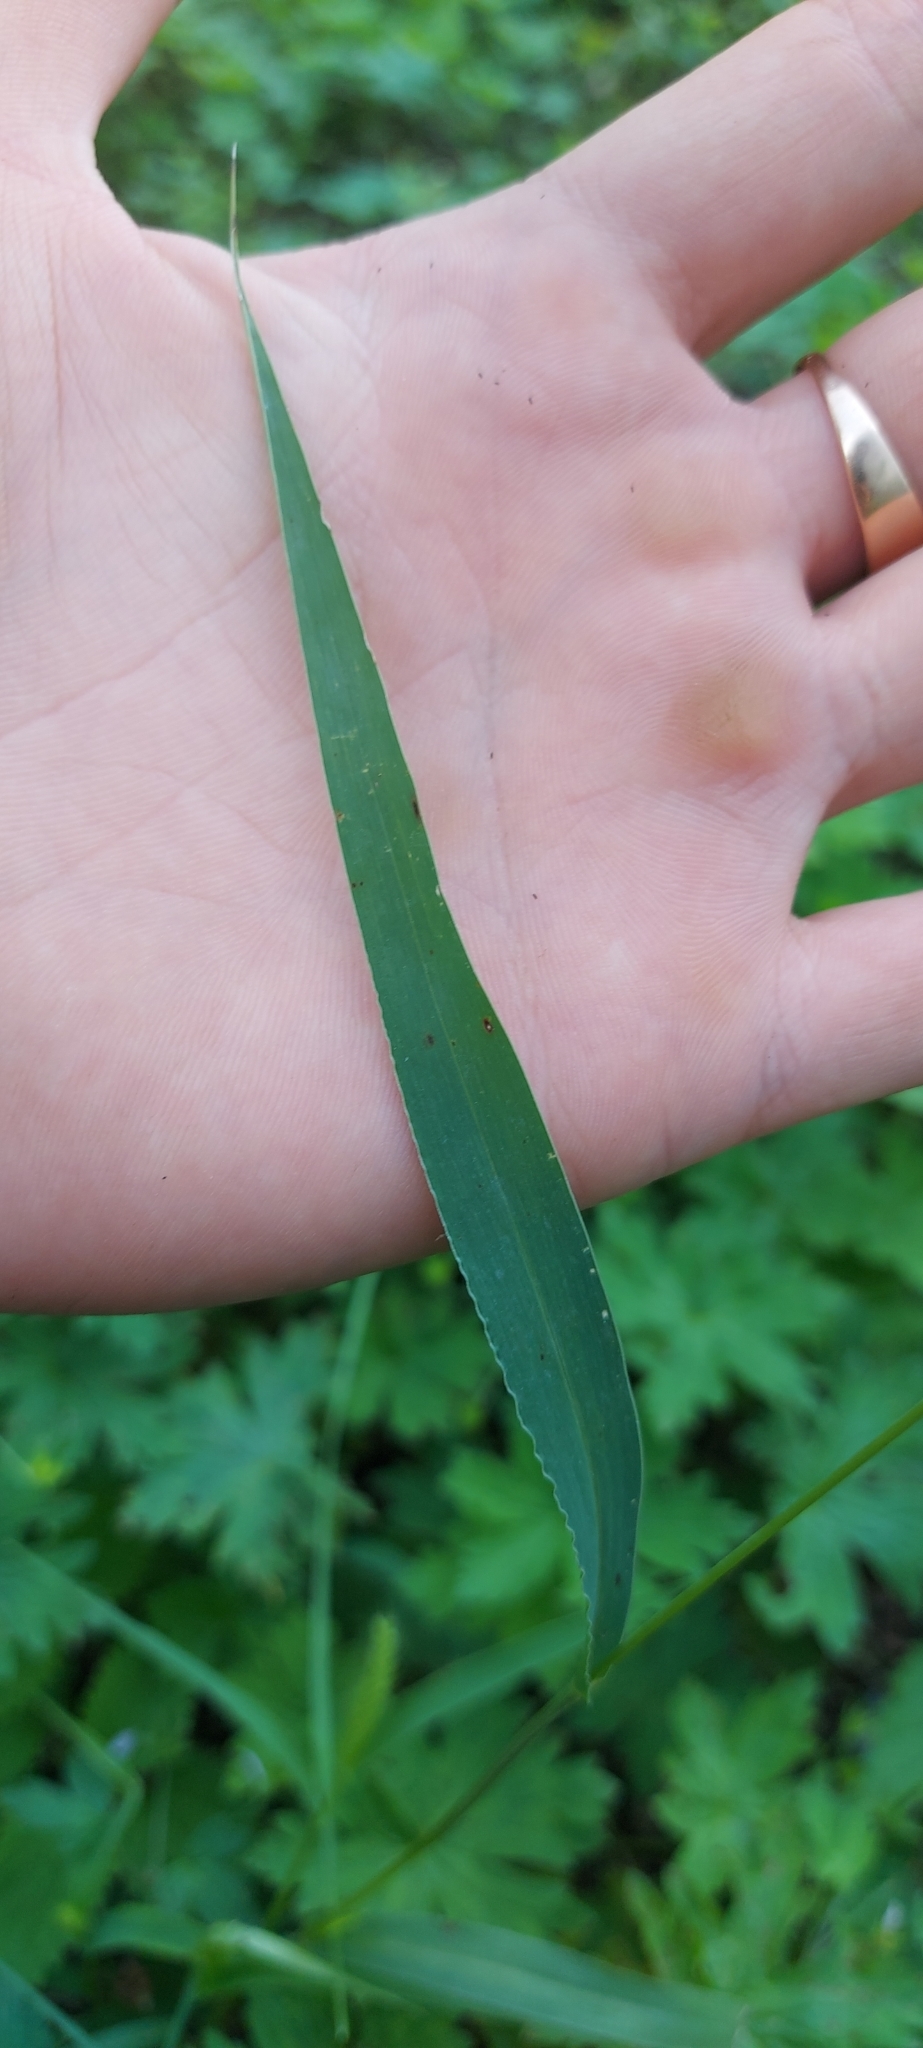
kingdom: Plantae
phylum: Tracheophyta
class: Liliopsida
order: Poales
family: Poaceae
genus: Setaria
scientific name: Setaria viridis
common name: Green bristlegrass
